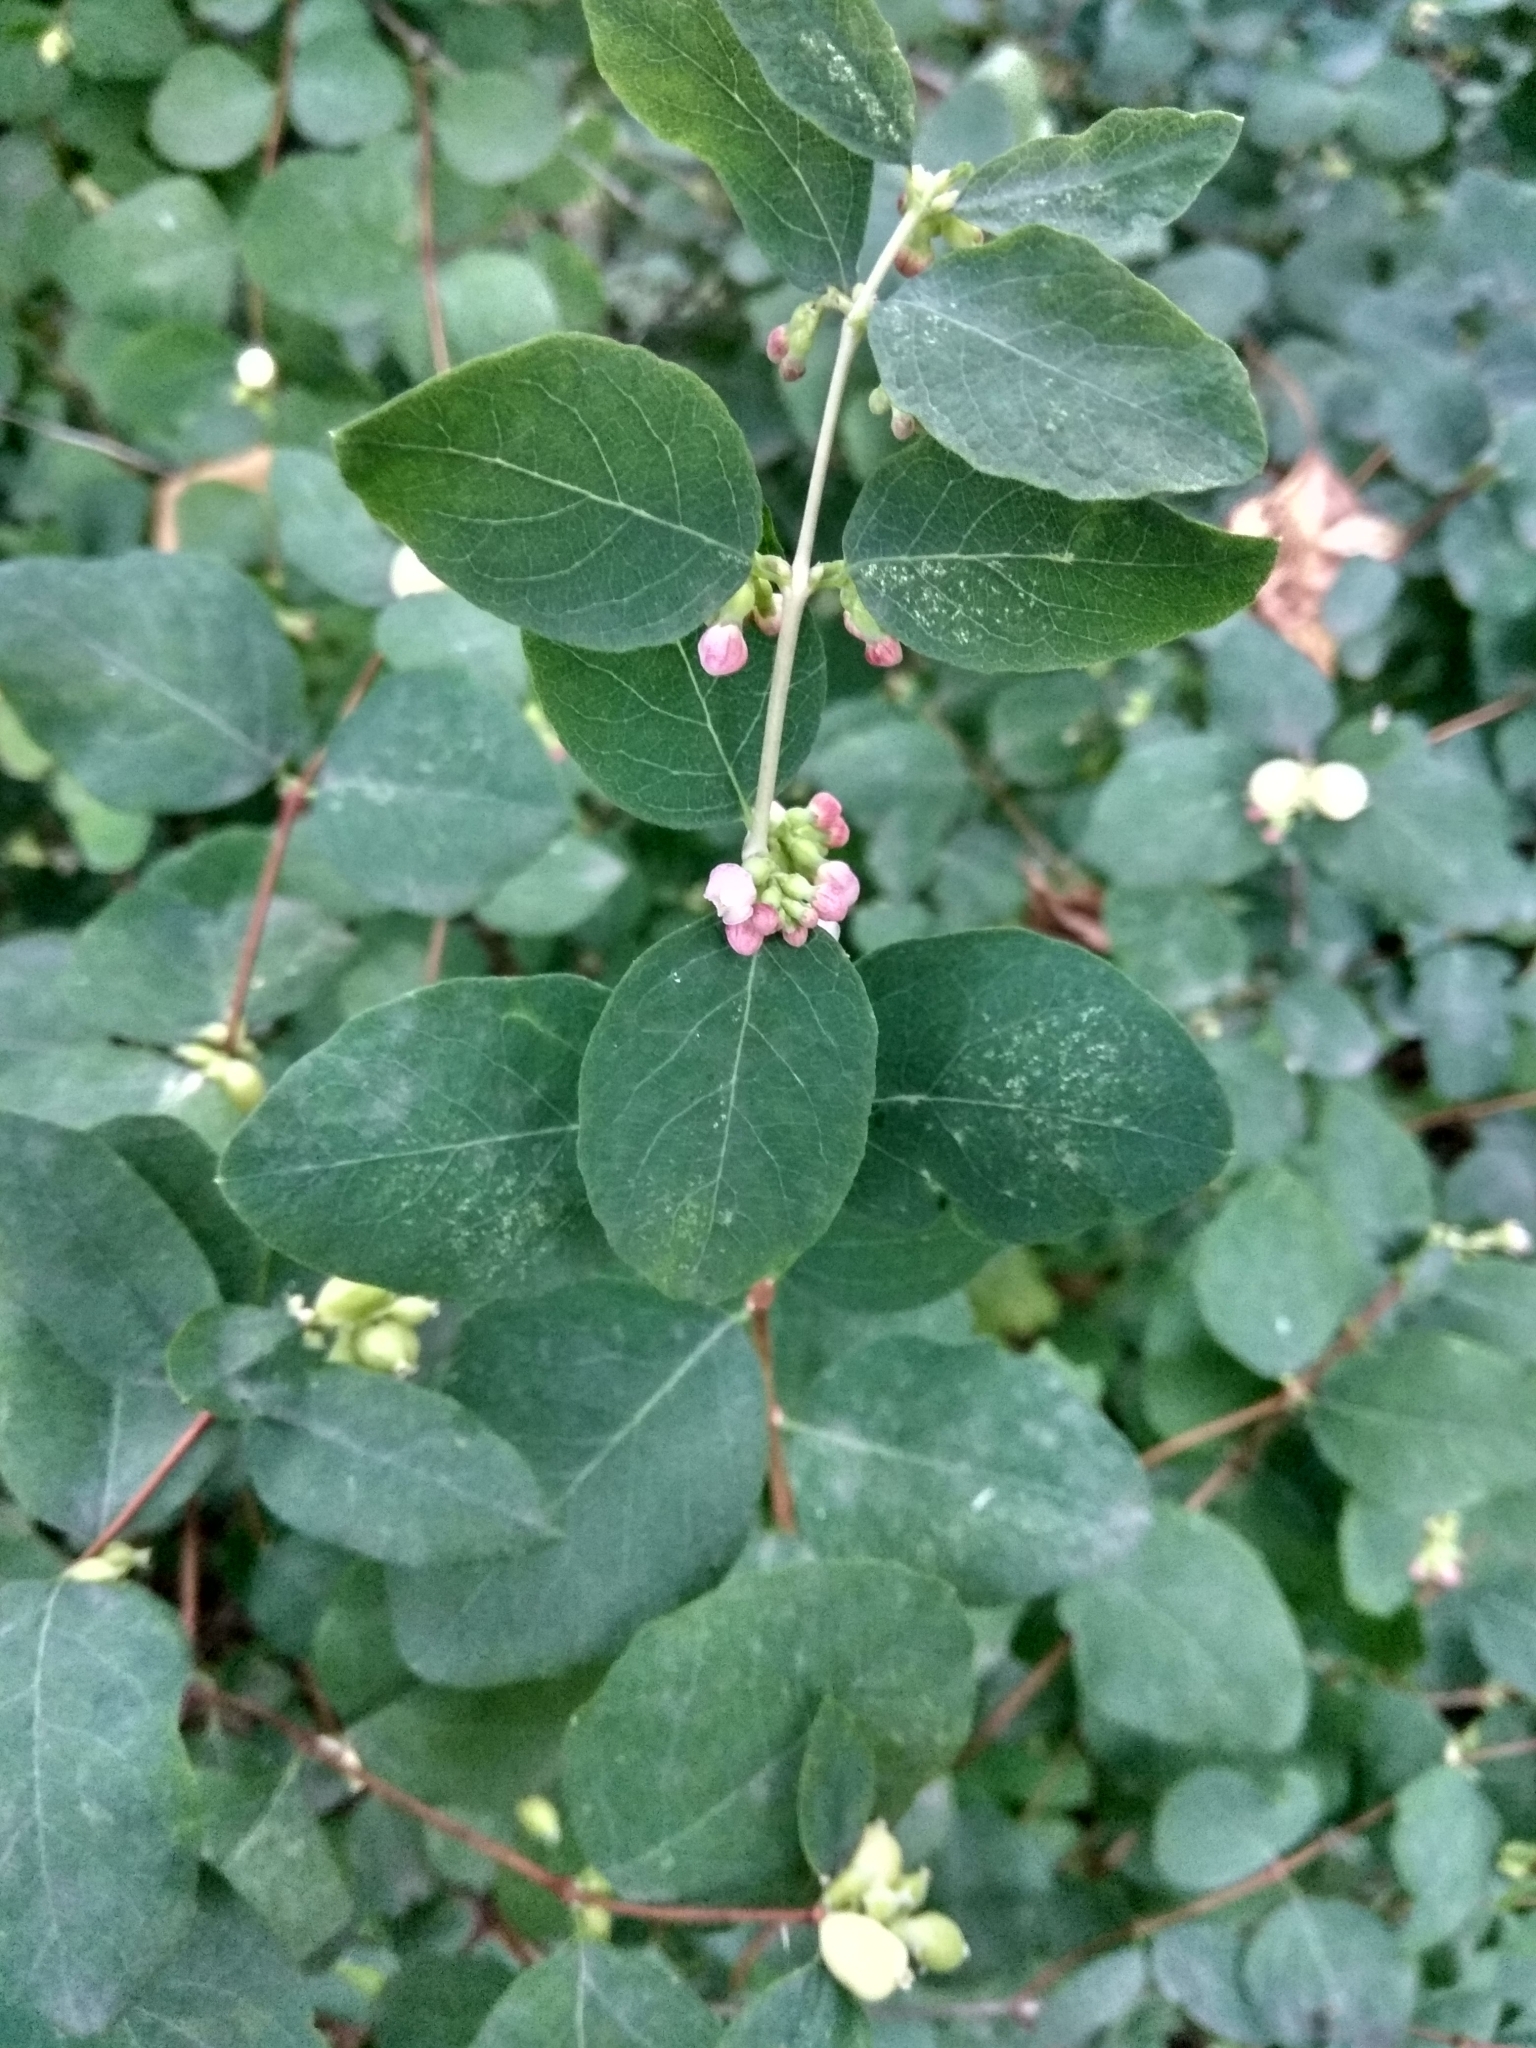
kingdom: Plantae
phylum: Tracheophyta
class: Magnoliopsida
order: Dipsacales
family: Caprifoliaceae
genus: Symphoricarpos
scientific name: Symphoricarpos albus
